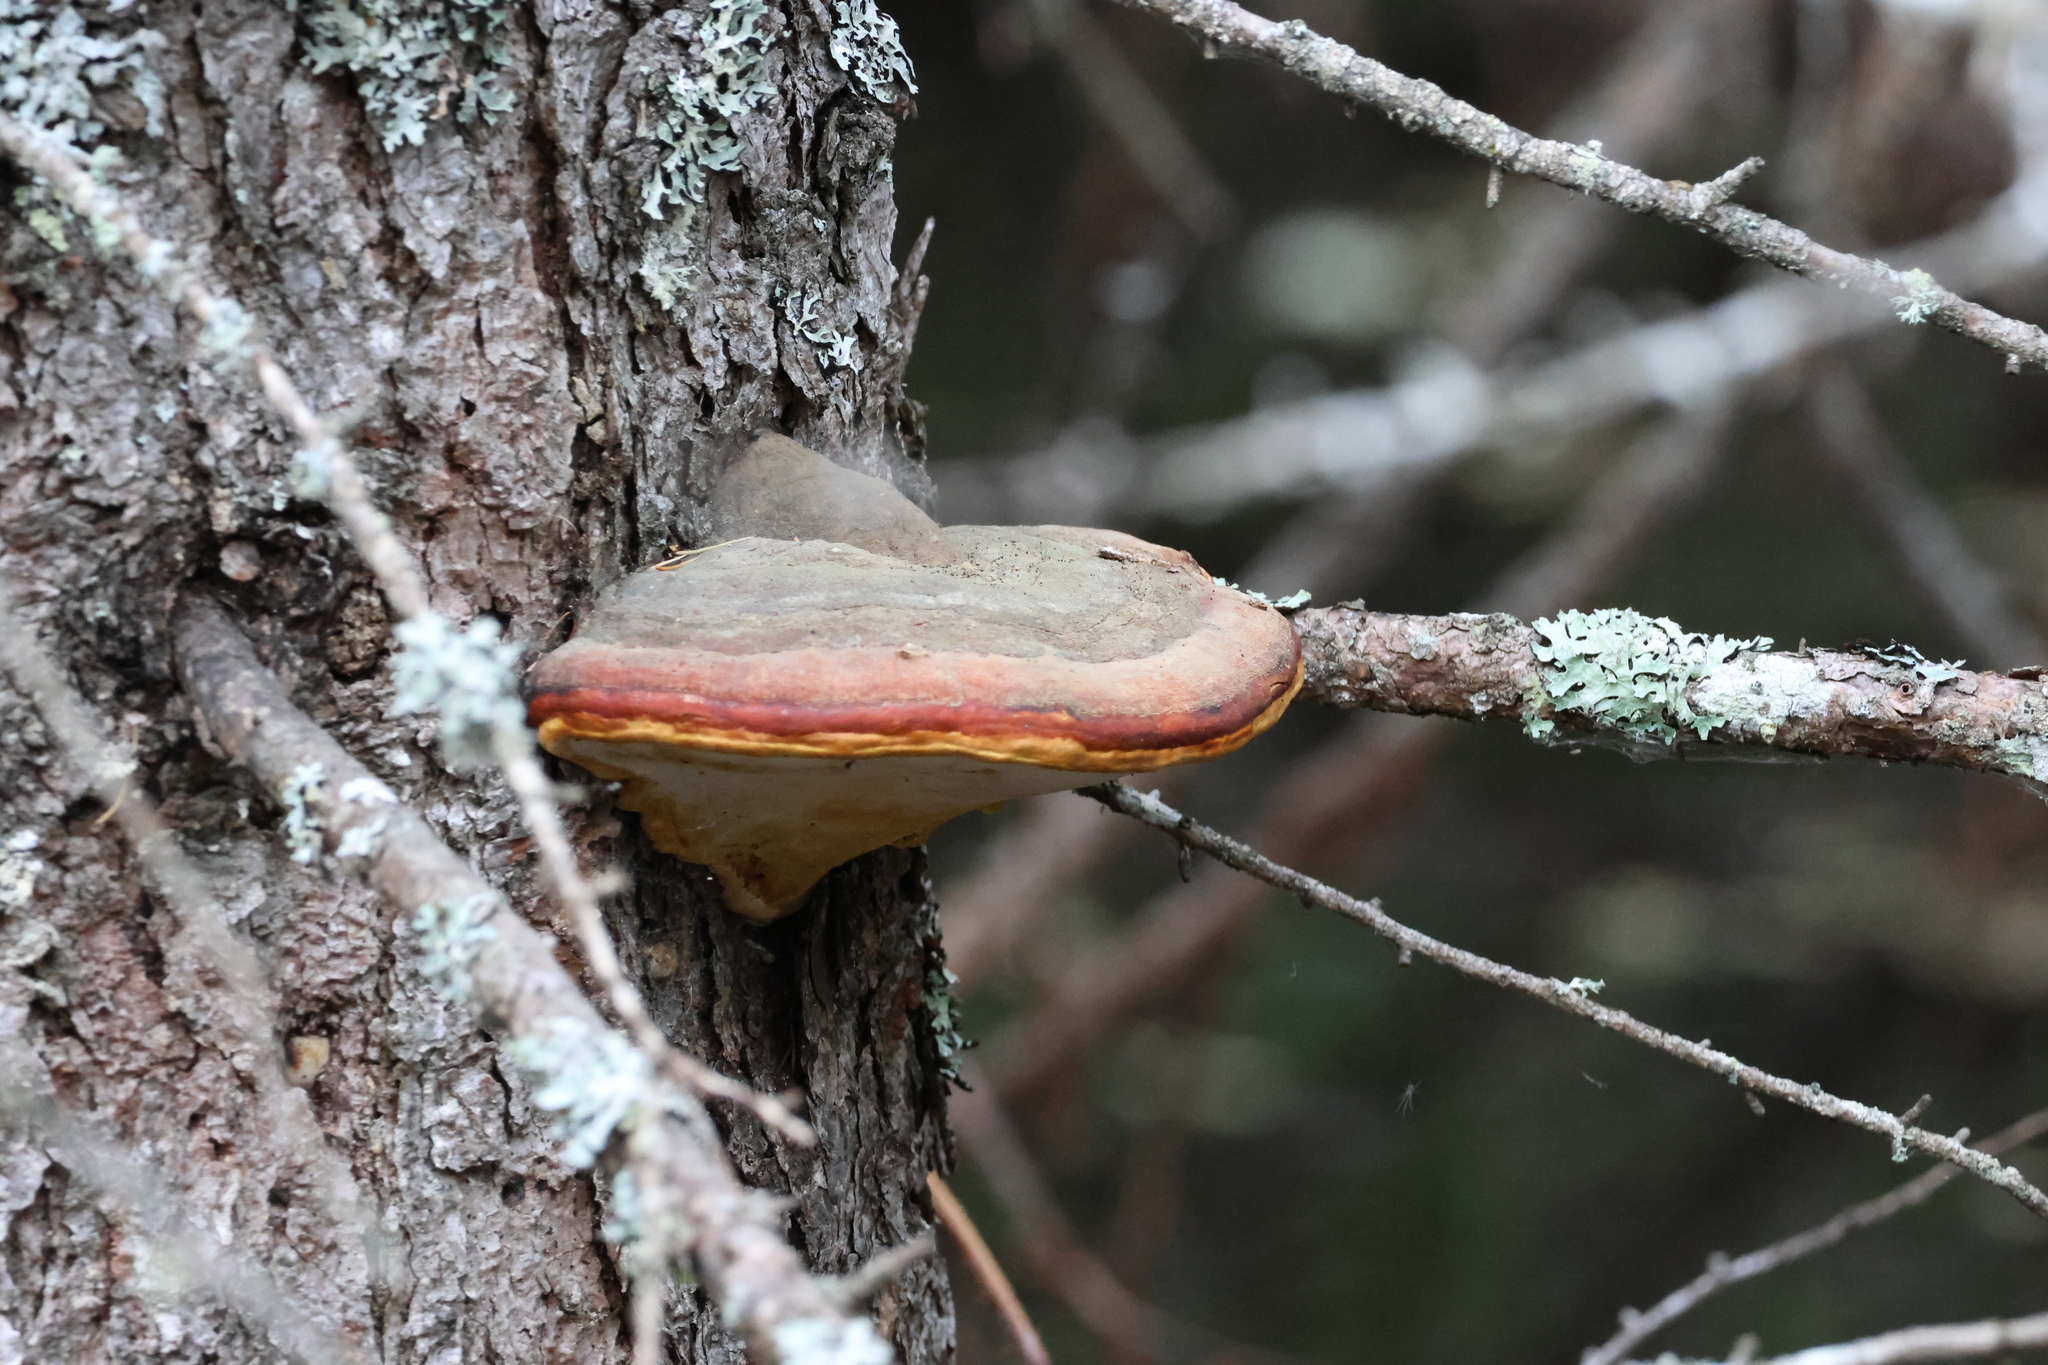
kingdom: Fungi
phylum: Basidiomycota
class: Agaricomycetes
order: Polyporales
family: Fomitopsidaceae
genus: Fomitopsis
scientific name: Fomitopsis mounceae
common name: Northern red belt
